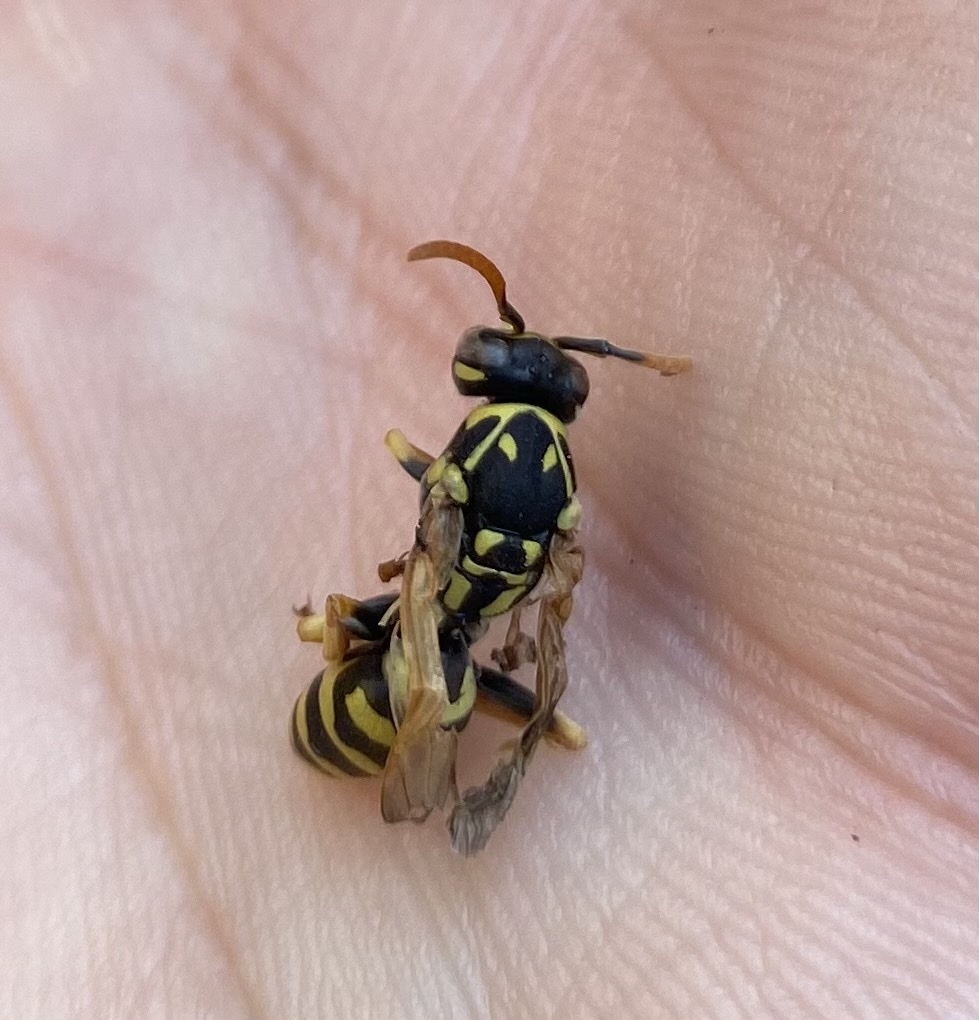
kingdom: Animalia
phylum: Arthropoda
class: Insecta
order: Hymenoptera
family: Eumenidae
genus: Polistes
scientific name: Polistes dominula
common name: Paper wasp
